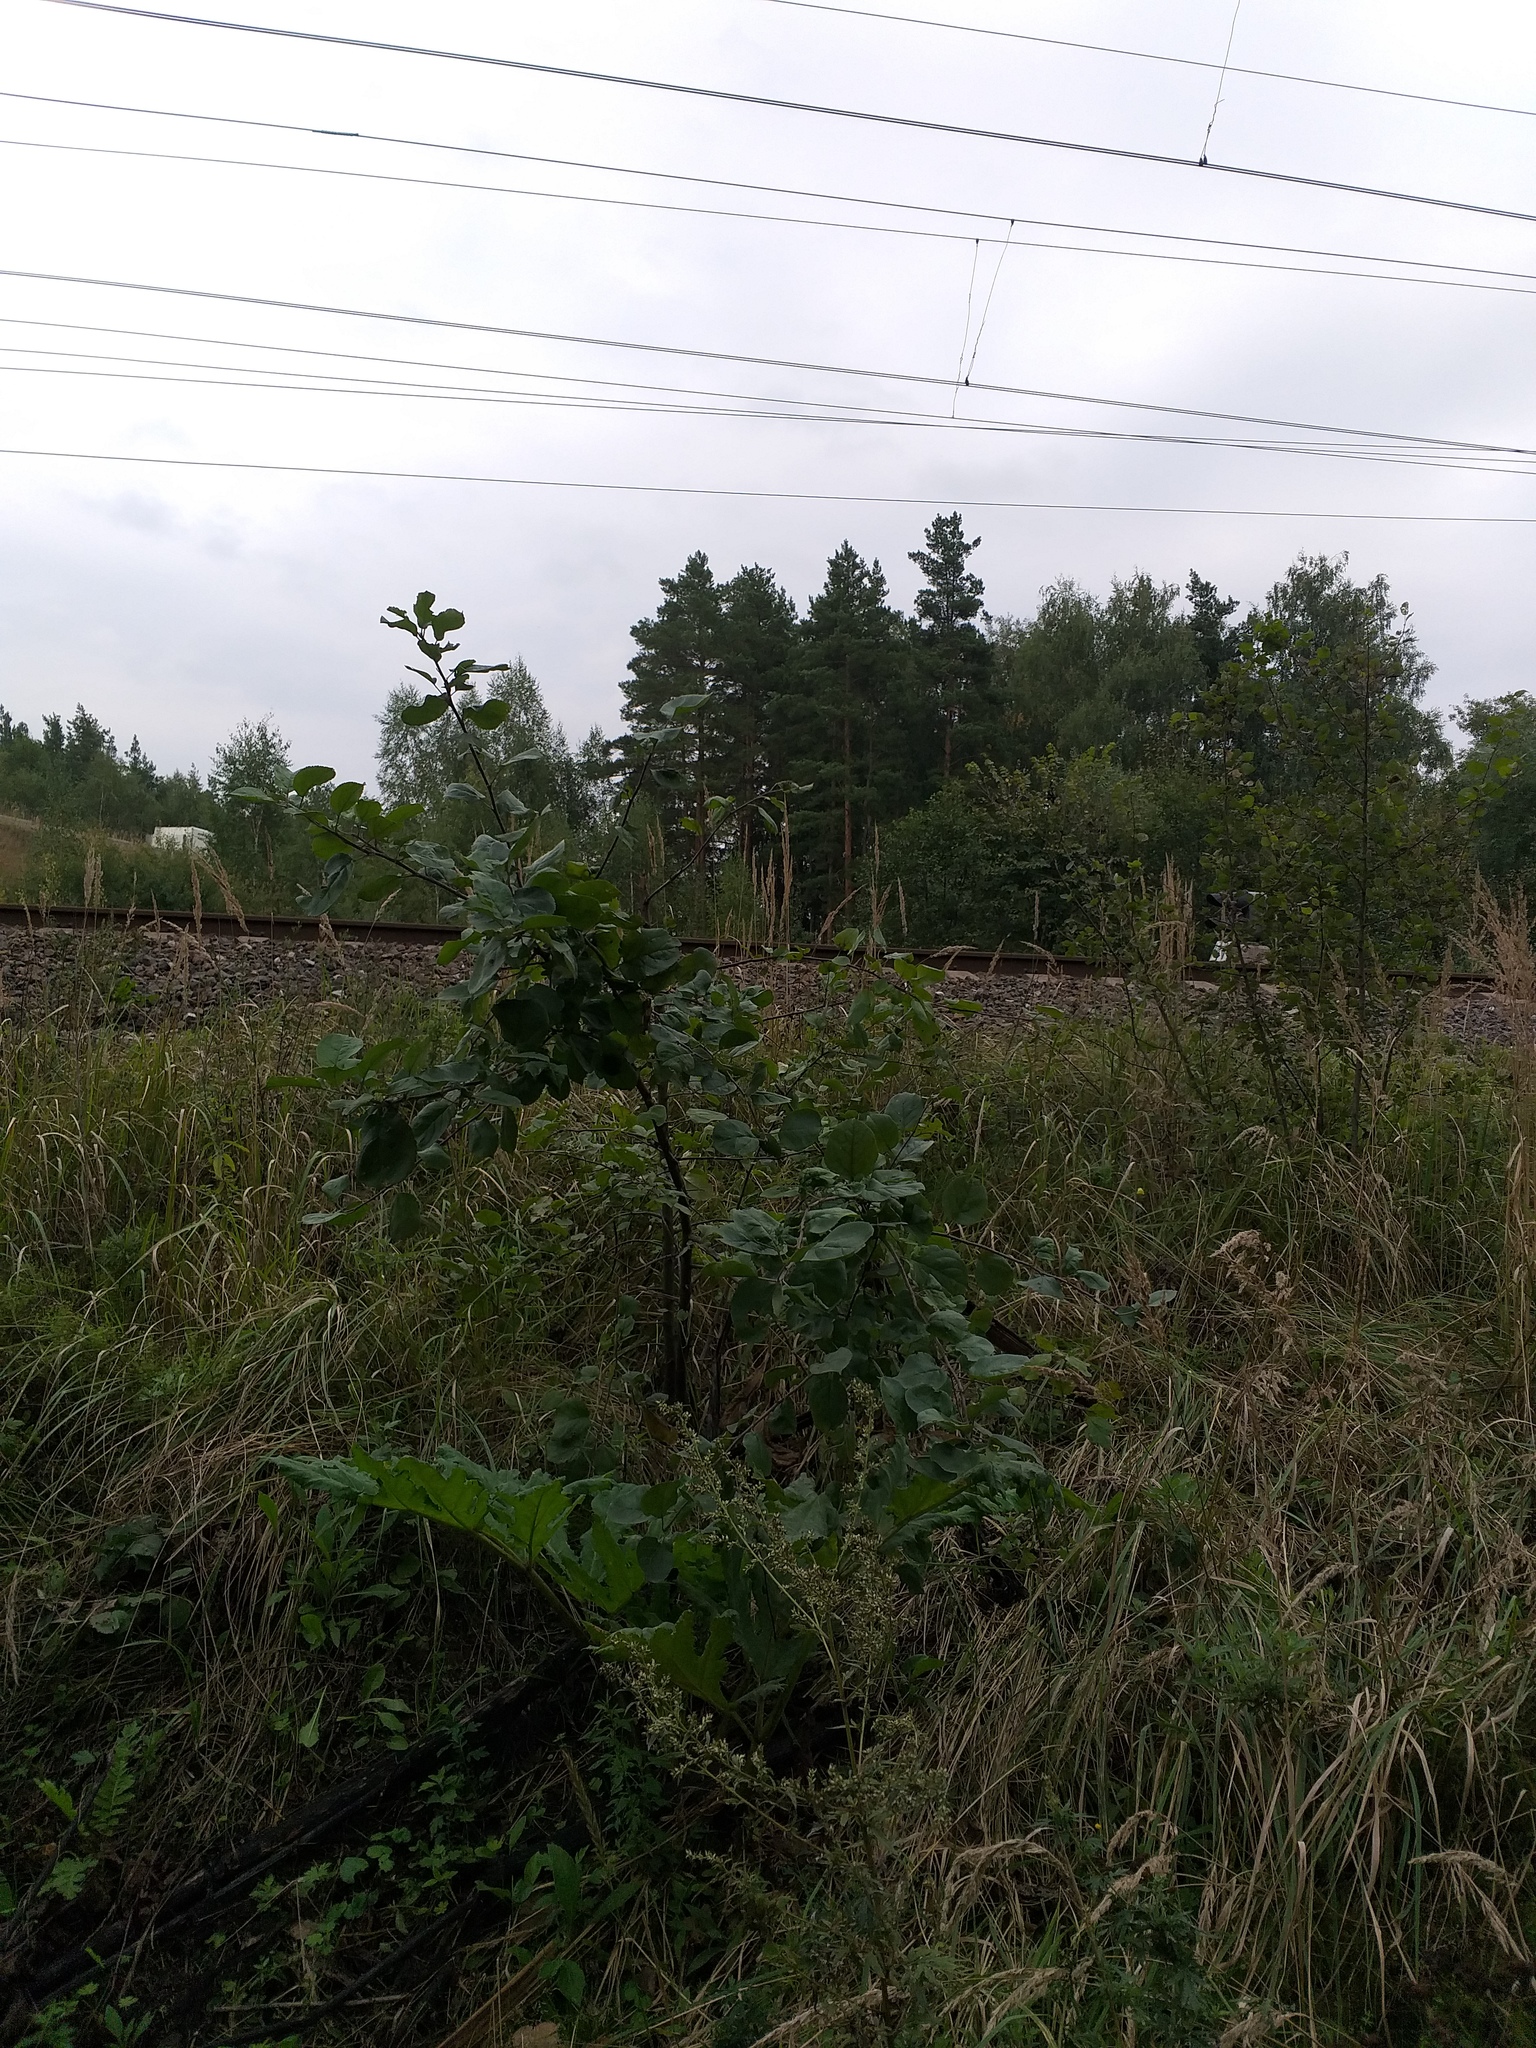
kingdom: Plantae
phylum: Tracheophyta
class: Magnoliopsida
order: Rosales
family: Rosaceae
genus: Malus
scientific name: Malus domestica
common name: Apple
